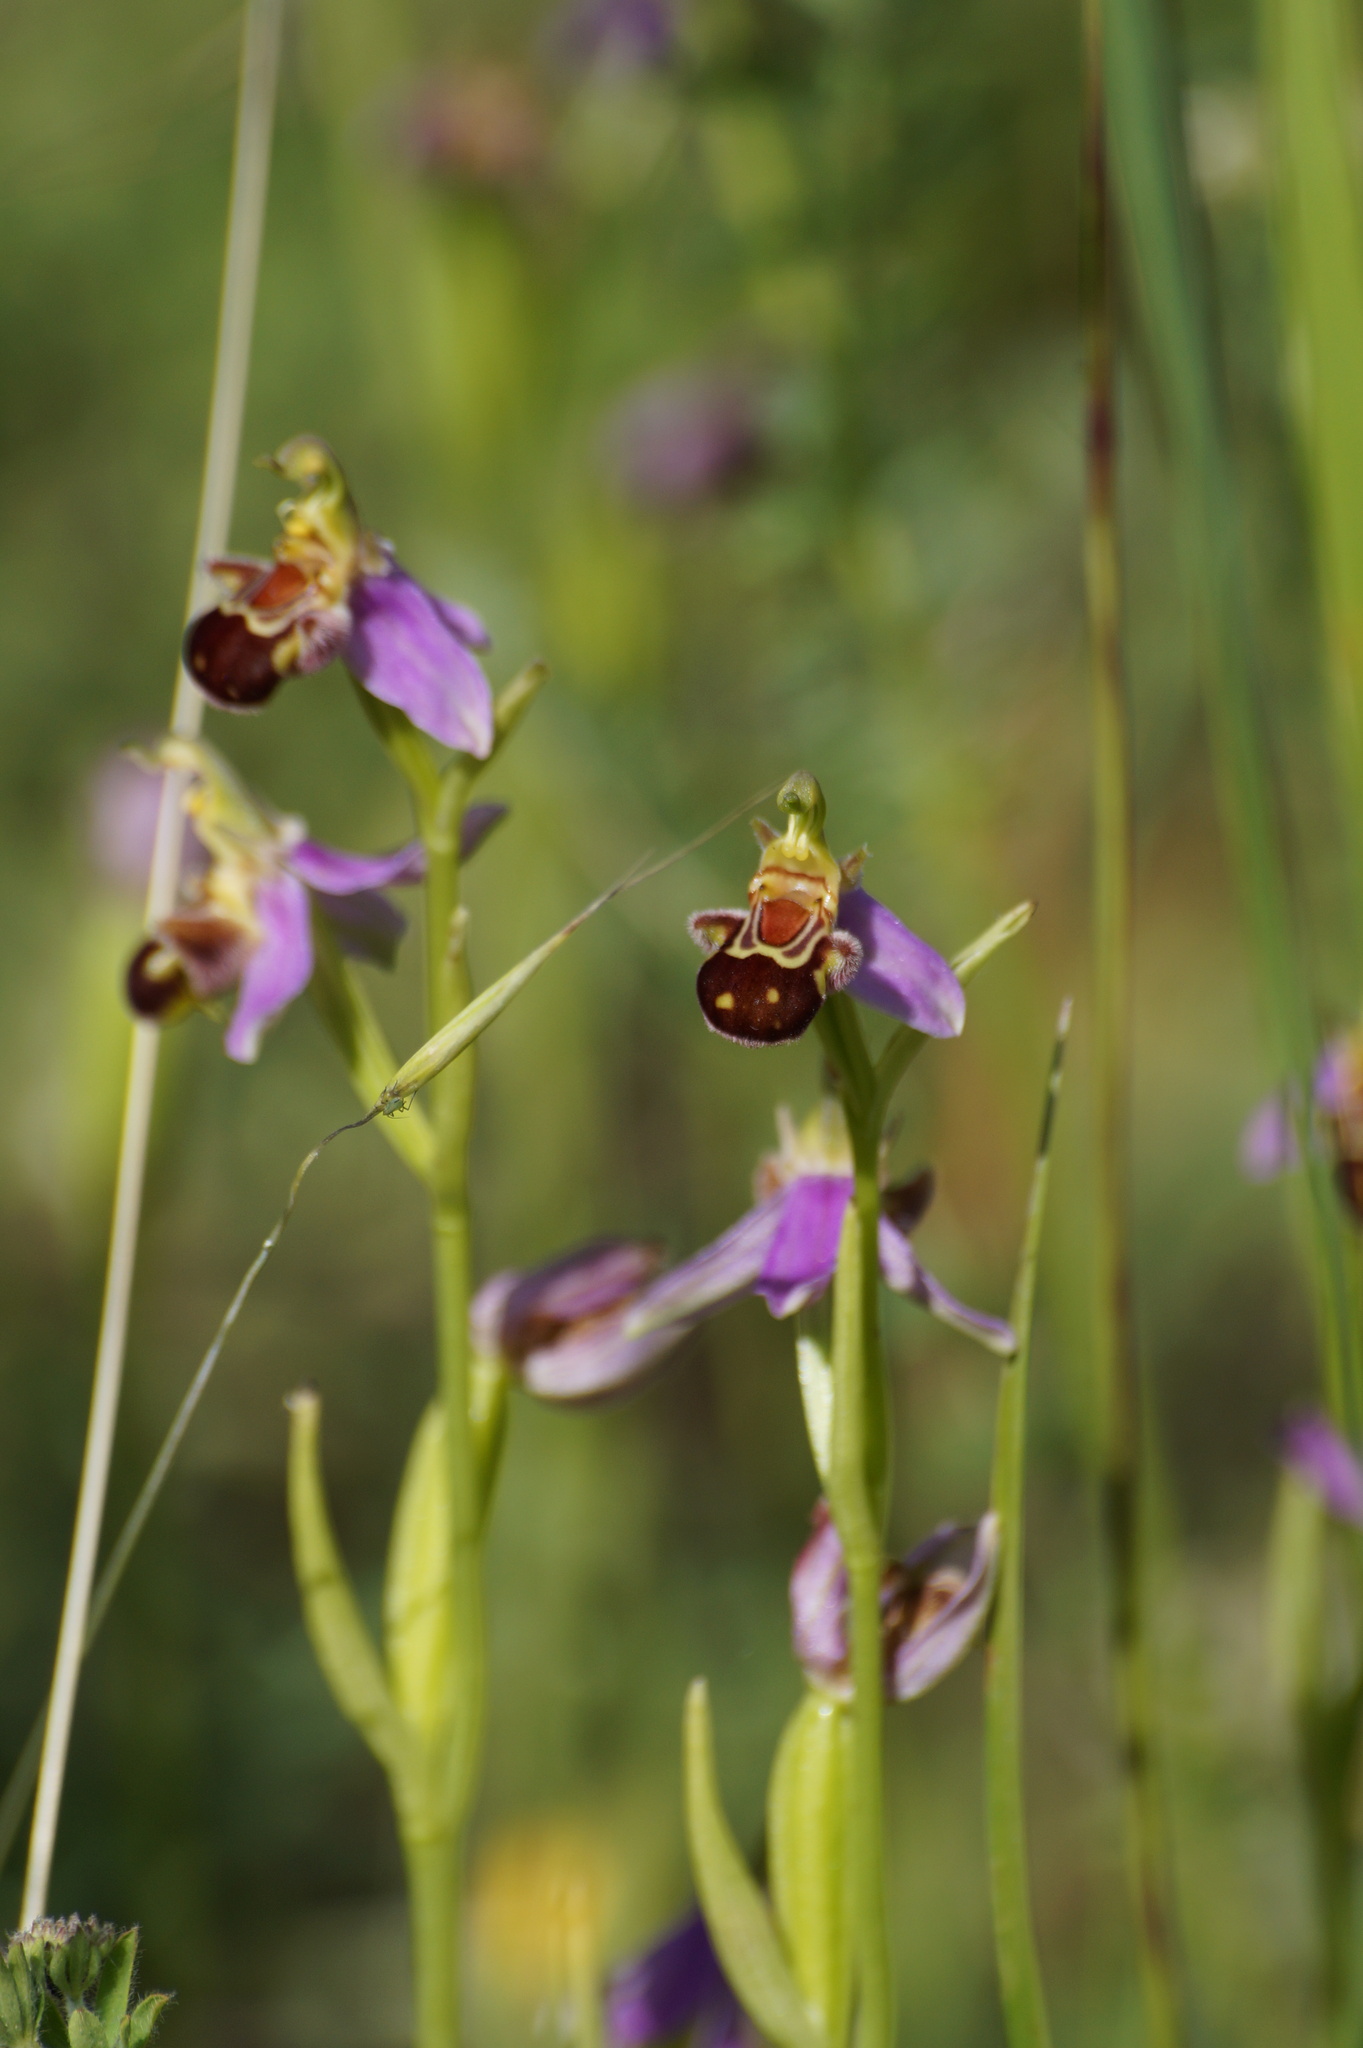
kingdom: Plantae
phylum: Tracheophyta
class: Liliopsida
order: Asparagales
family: Orchidaceae
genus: Ophrys
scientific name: Ophrys apifera
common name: Bee orchid
